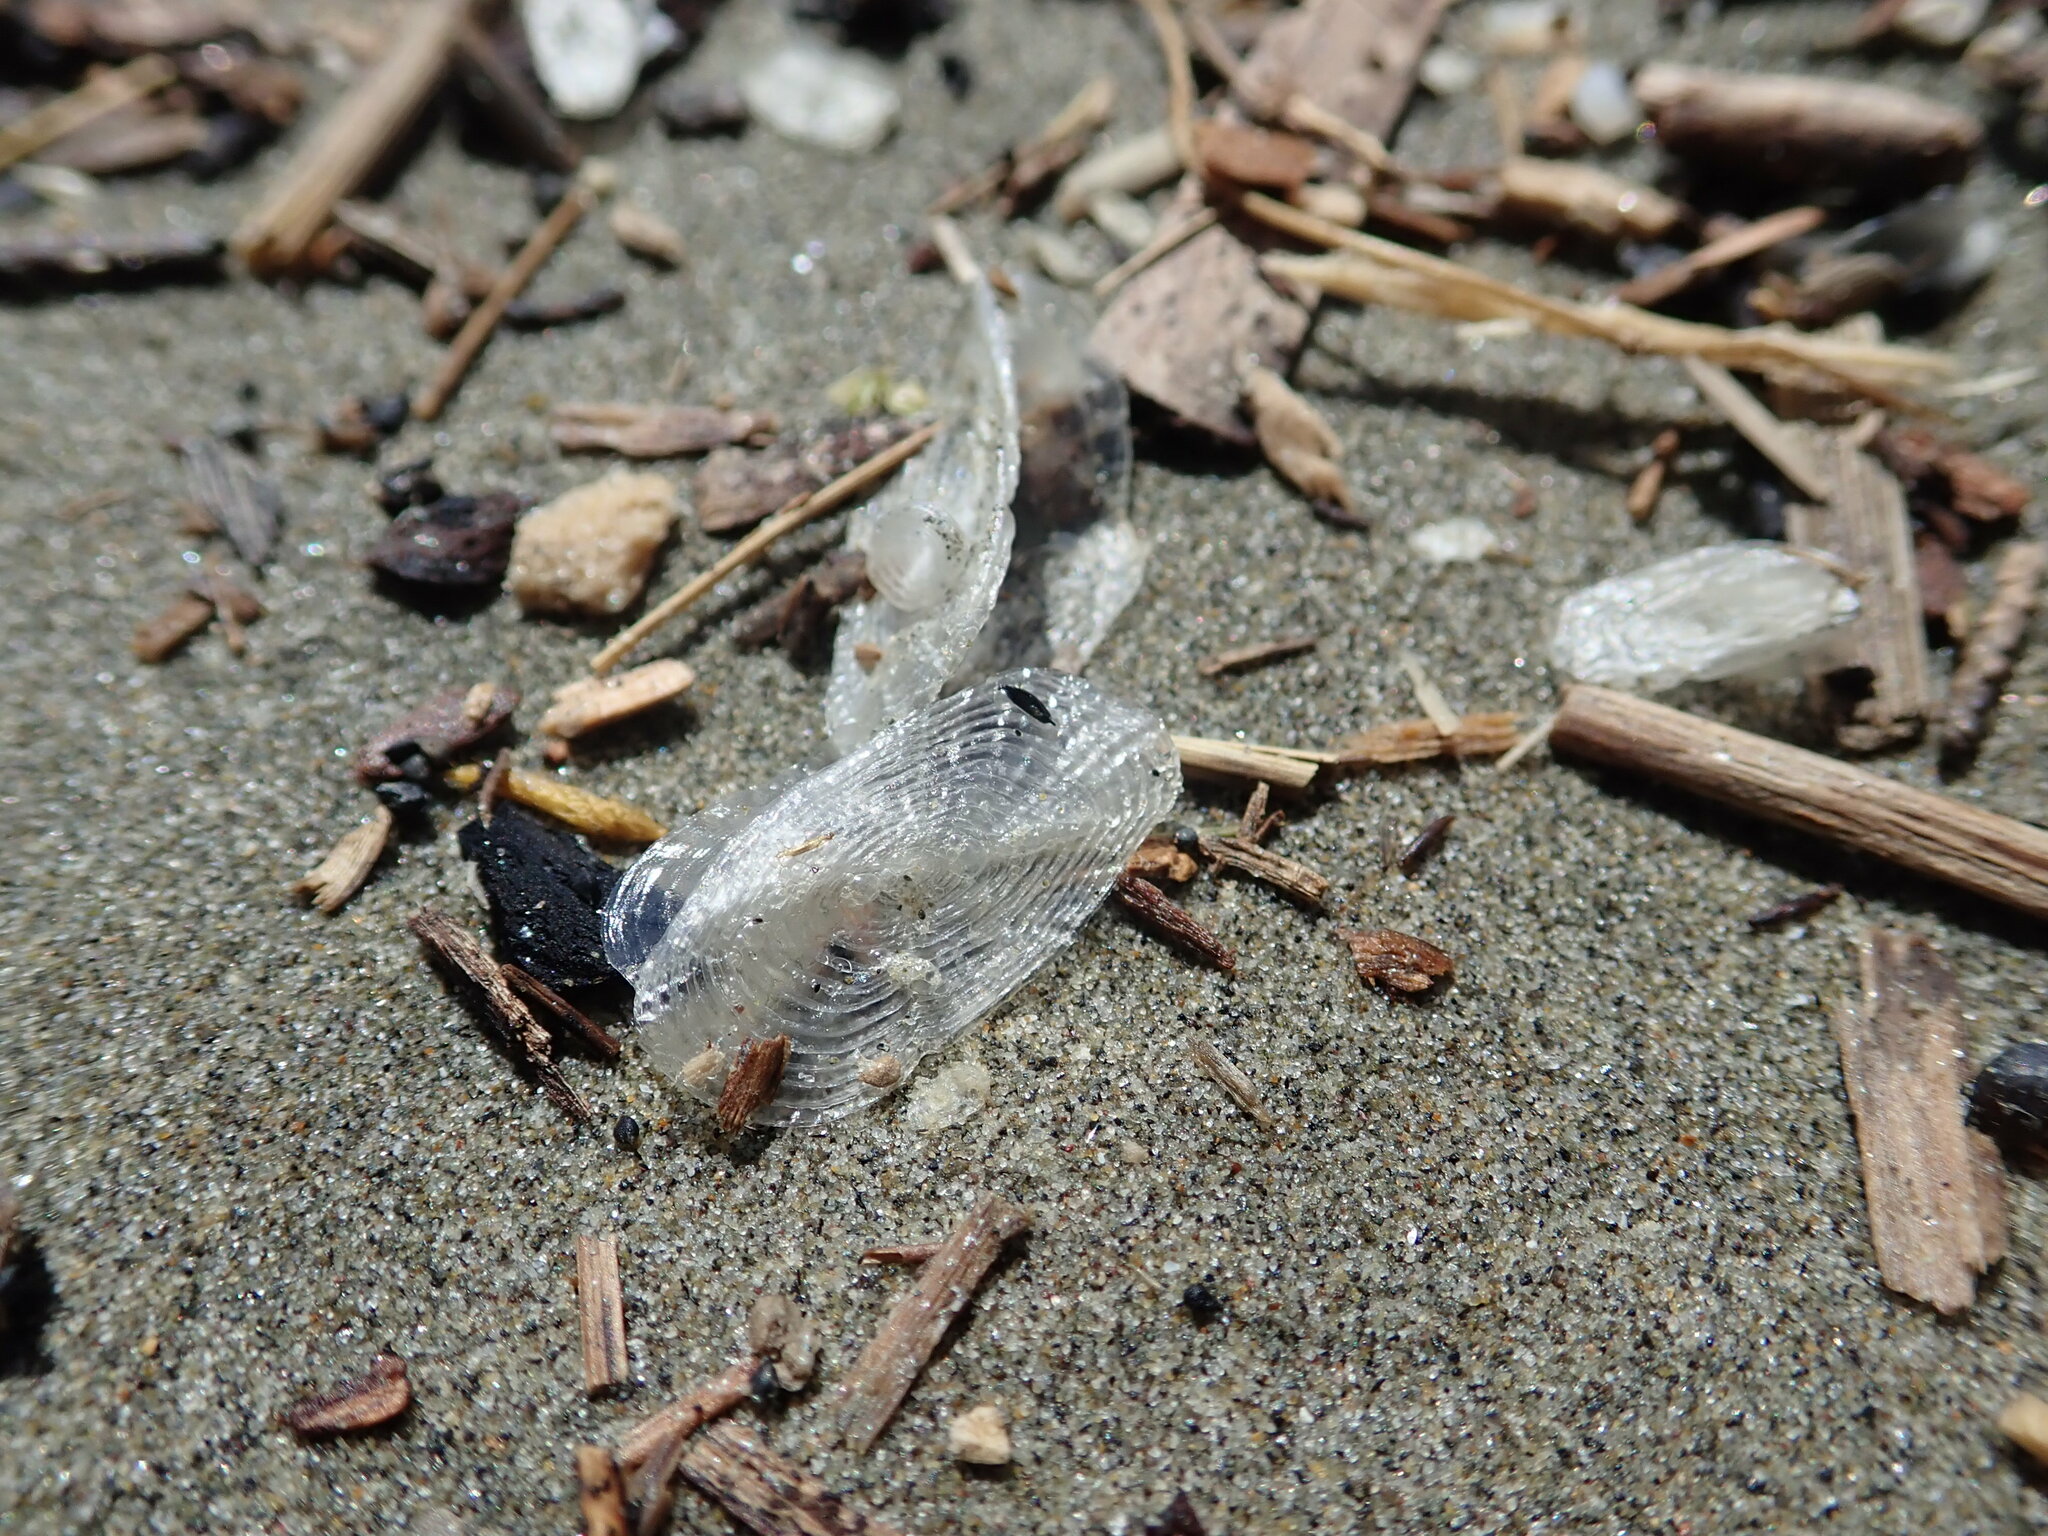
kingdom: Animalia
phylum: Cnidaria
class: Hydrozoa
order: Anthoathecata
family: Porpitidae
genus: Velella
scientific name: Velella velella
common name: By-the-wind-sailor
